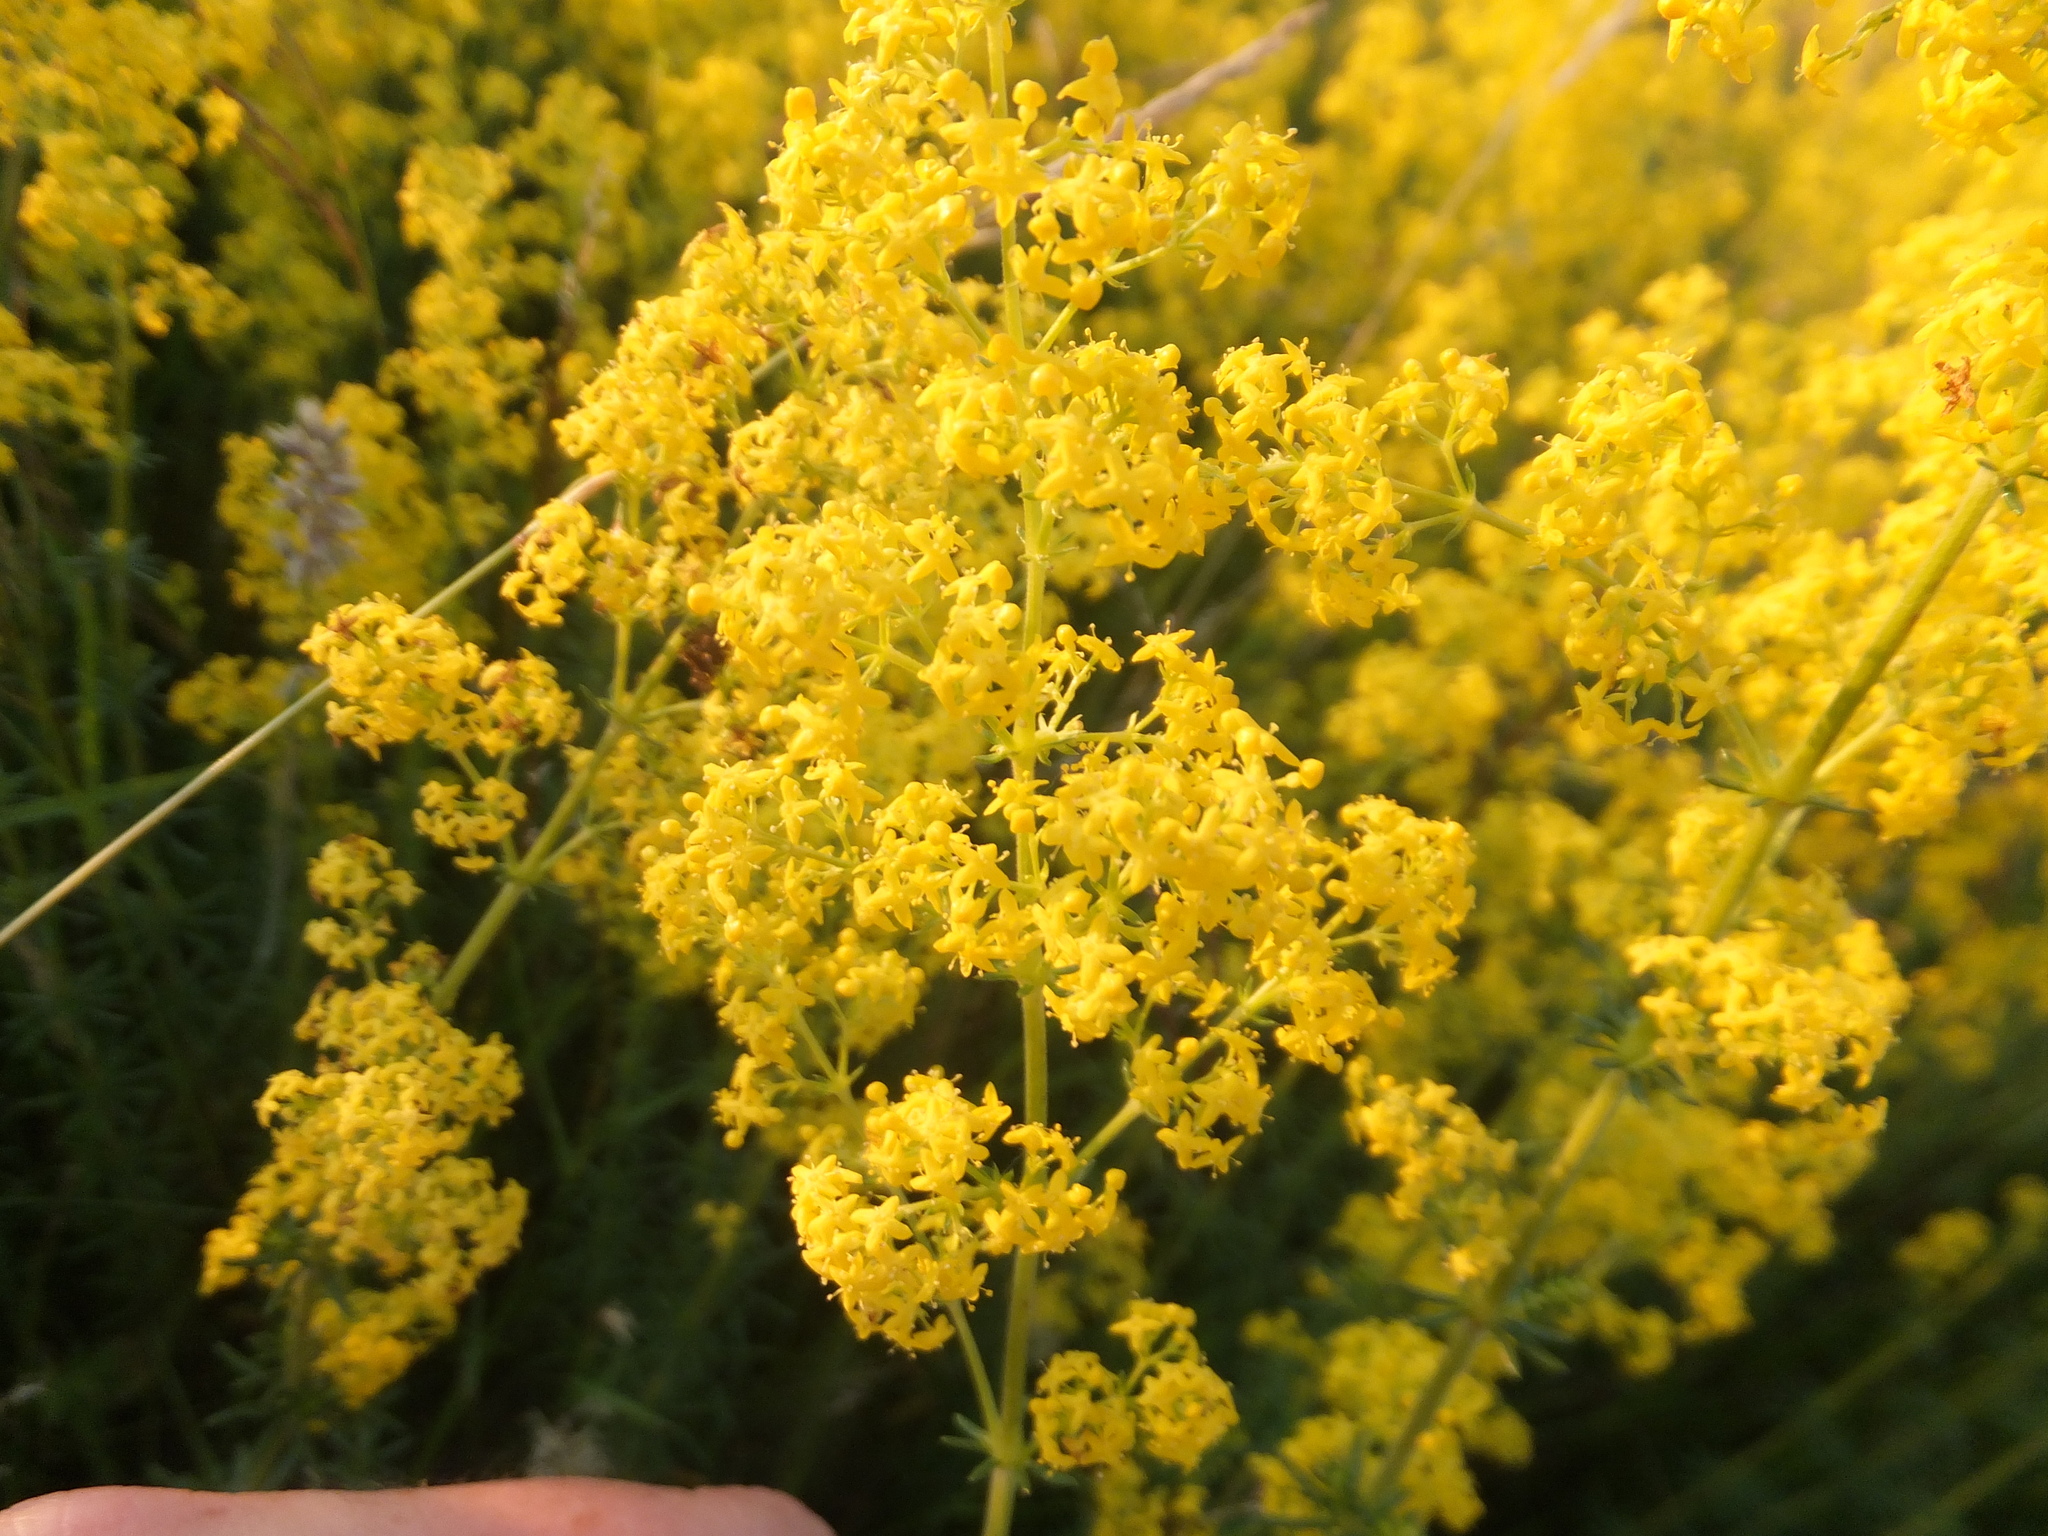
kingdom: Plantae
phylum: Tracheophyta
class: Magnoliopsida
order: Gentianales
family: Rubiaceae
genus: Galium
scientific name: Galium verum
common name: Lady's bedstraw
